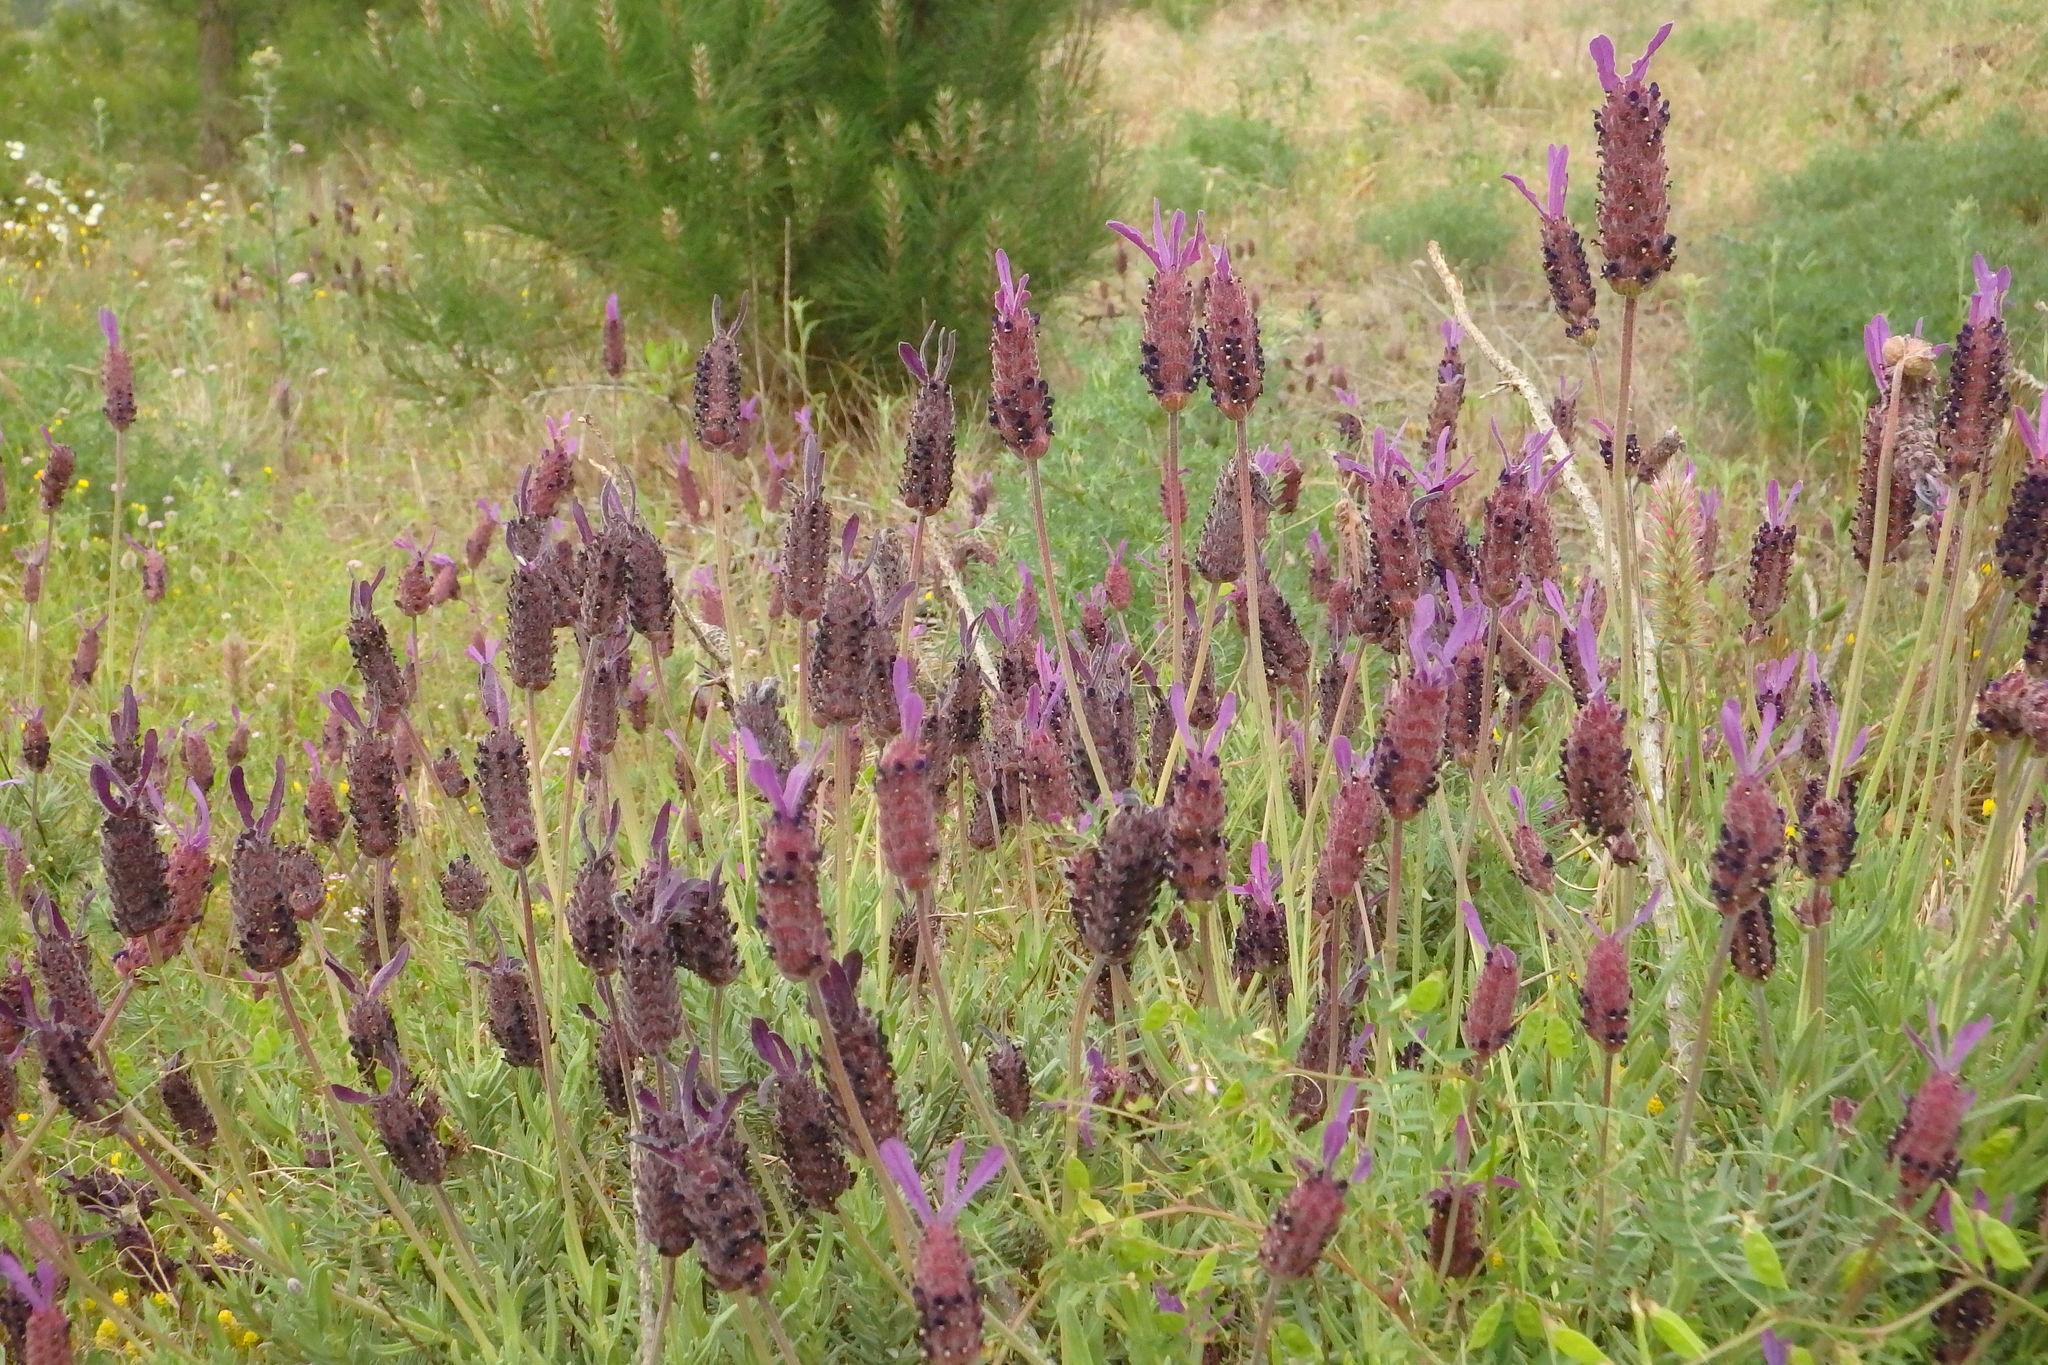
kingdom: Plantae
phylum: Tracheophyta
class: Magnoliopsida
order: Lamiales
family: Lamiaceae
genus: Lavandula
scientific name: Lavandula pedunculata
